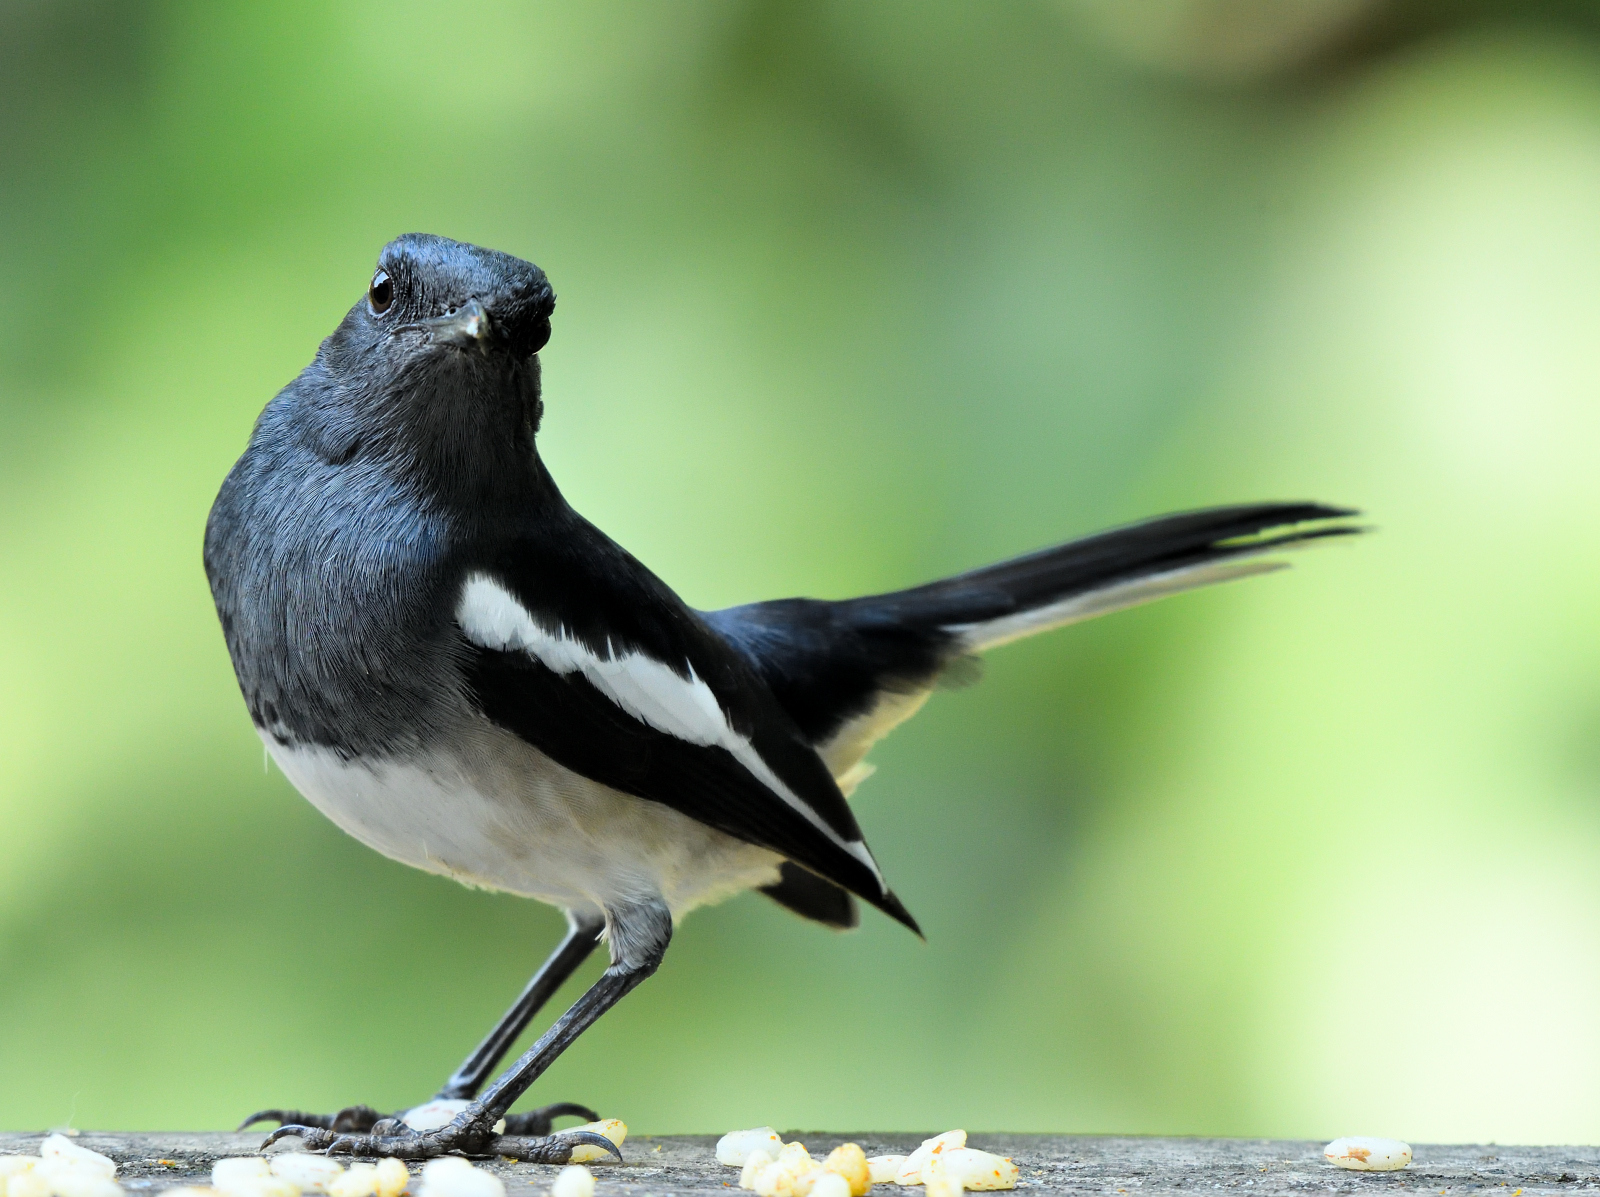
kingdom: Animalia
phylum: Chordata
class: Aves
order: Passeriformes
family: Muscicapidae
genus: Copsychus
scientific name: Copsychus saularis
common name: Oriental magpie-robin
